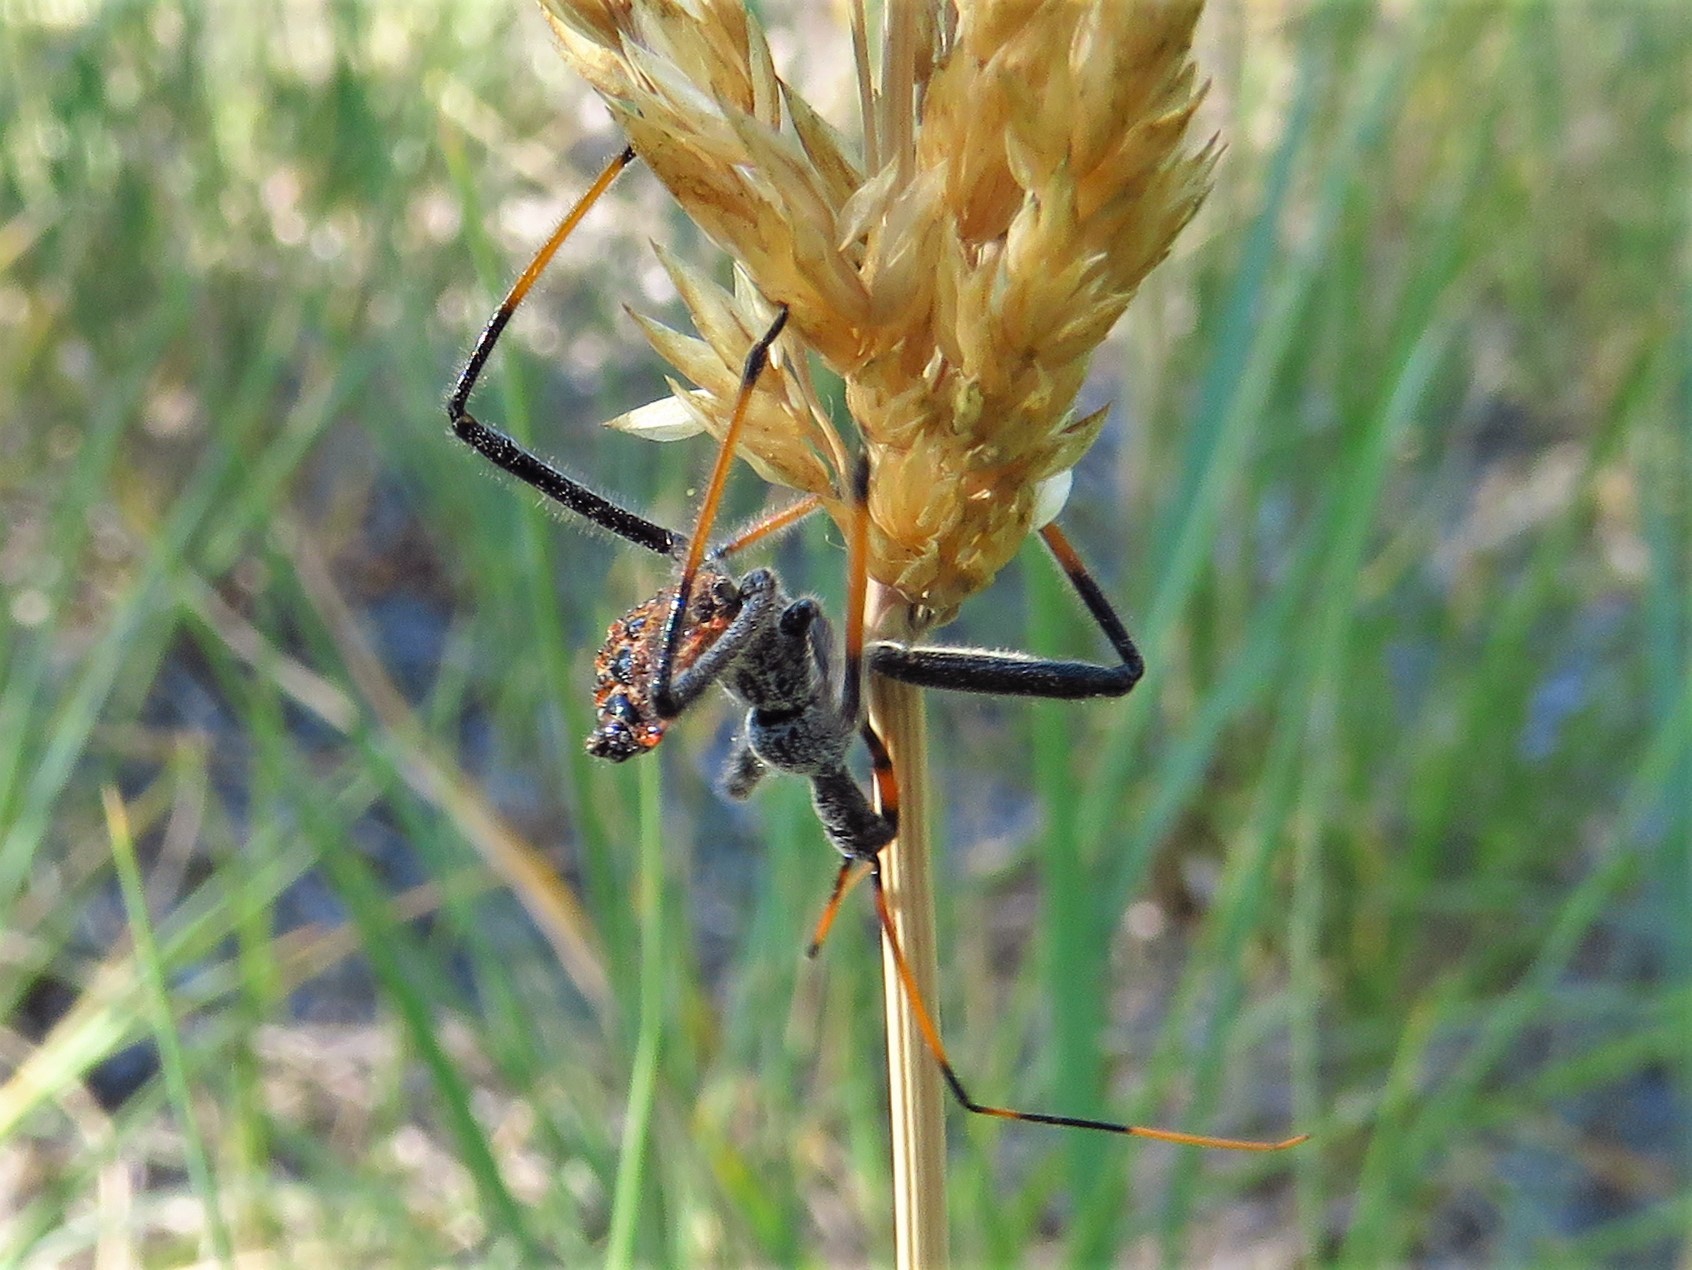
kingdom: Animalia
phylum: Arthropoda
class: Insecta
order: Hemiptera
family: Reduviidae
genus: Arilus
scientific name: Arilus cristatus
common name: North american wheel bug
